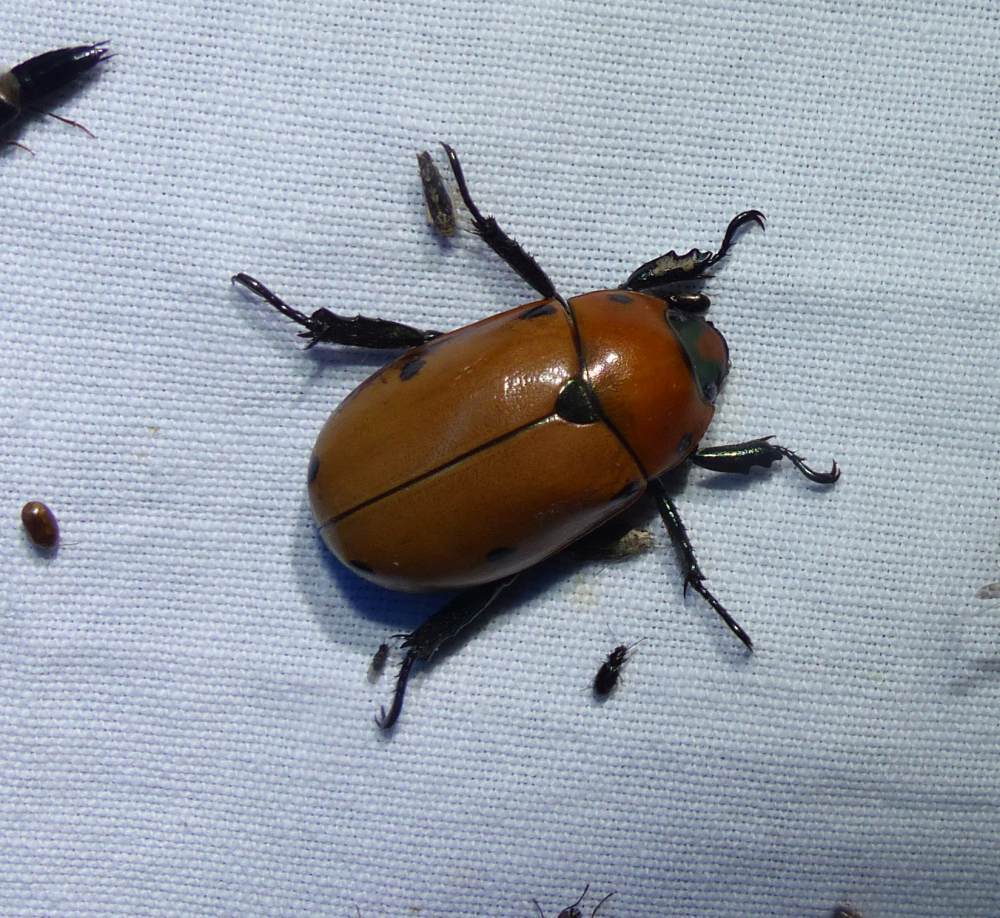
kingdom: Animalia
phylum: Arthropoda
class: Insecta
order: Coleoptera
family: Scarabaeidae
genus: Pelidnota
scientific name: Pelidnota punctata
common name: Grapevine beetle
